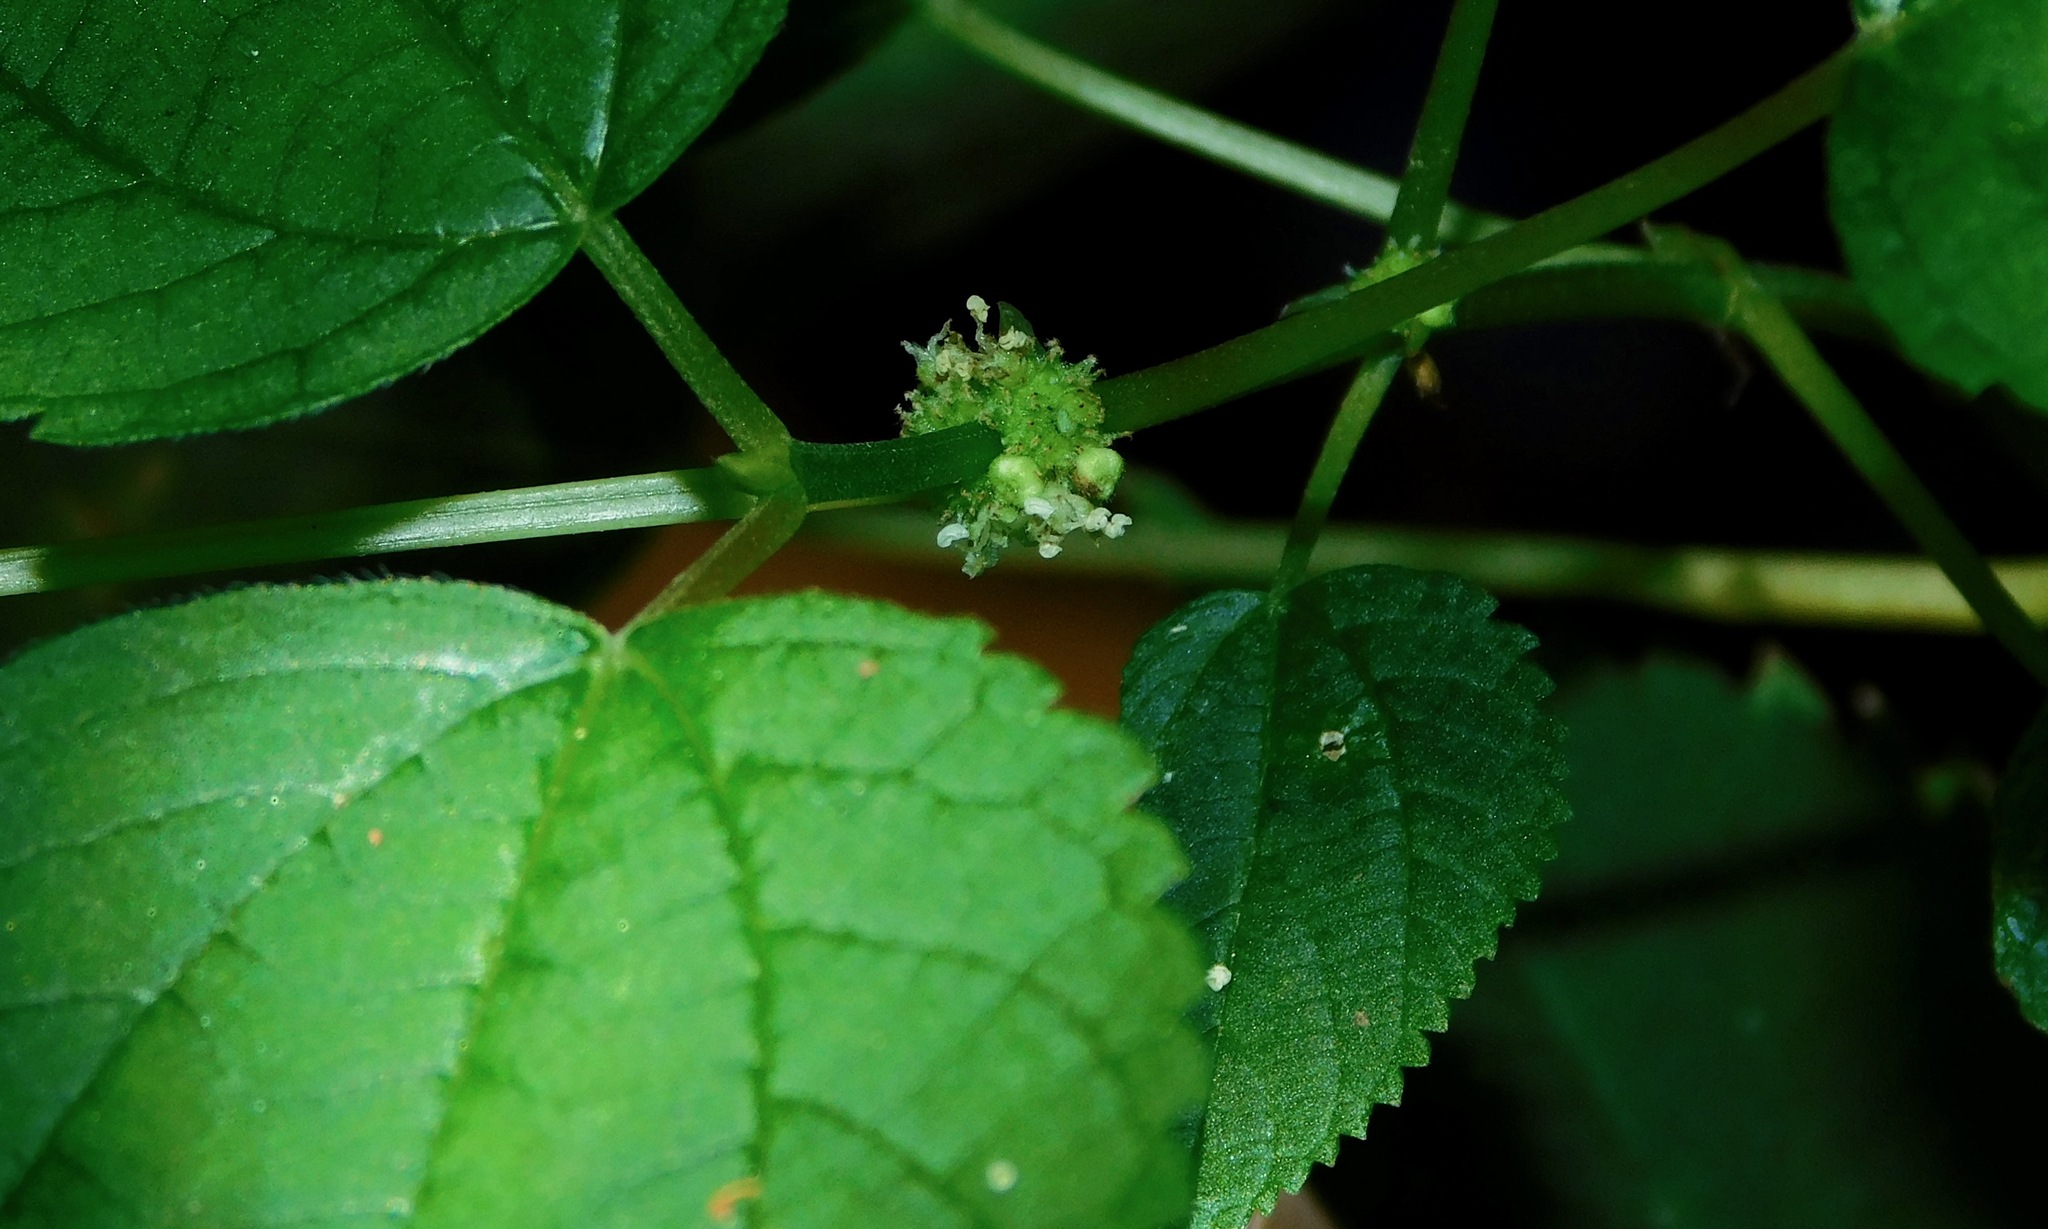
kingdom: Plantae
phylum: Tracheophyta
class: Magnoliopsida
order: Rosales
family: Urticaceae
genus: Boehmeria
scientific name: Boehmeria cylindrica
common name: Bog-hemp
